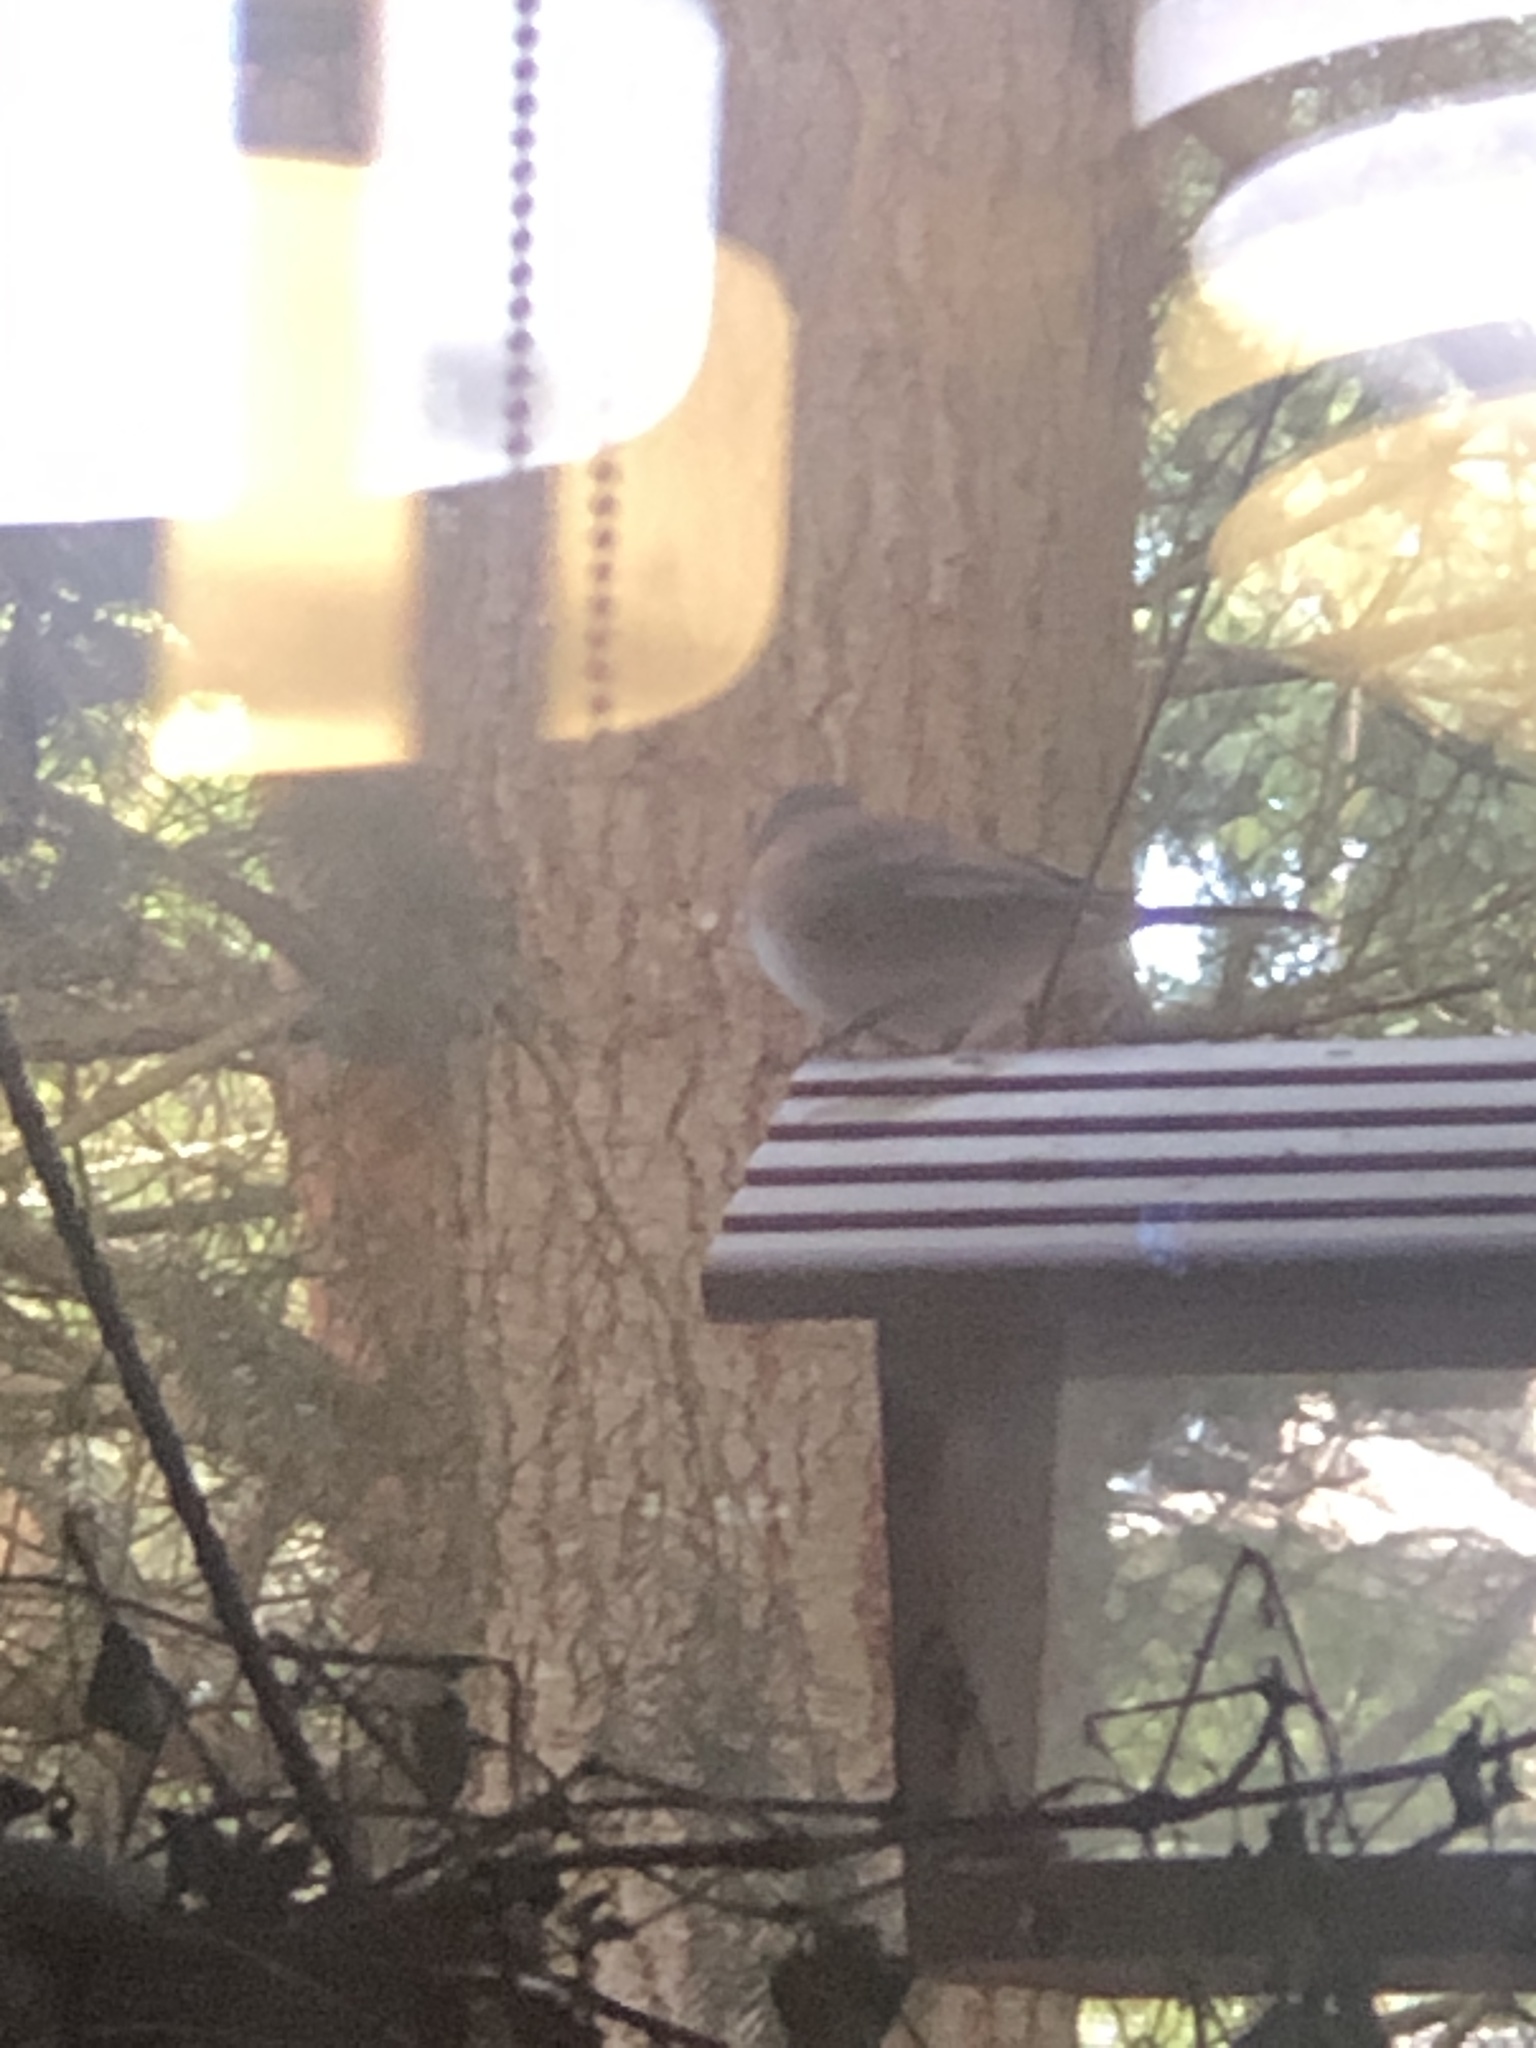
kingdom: Animalia
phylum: Chordata
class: Aves
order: Passeriformes
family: Passerellidae
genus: Junco
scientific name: Junco hyemalis
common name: Dark-eyed junco
